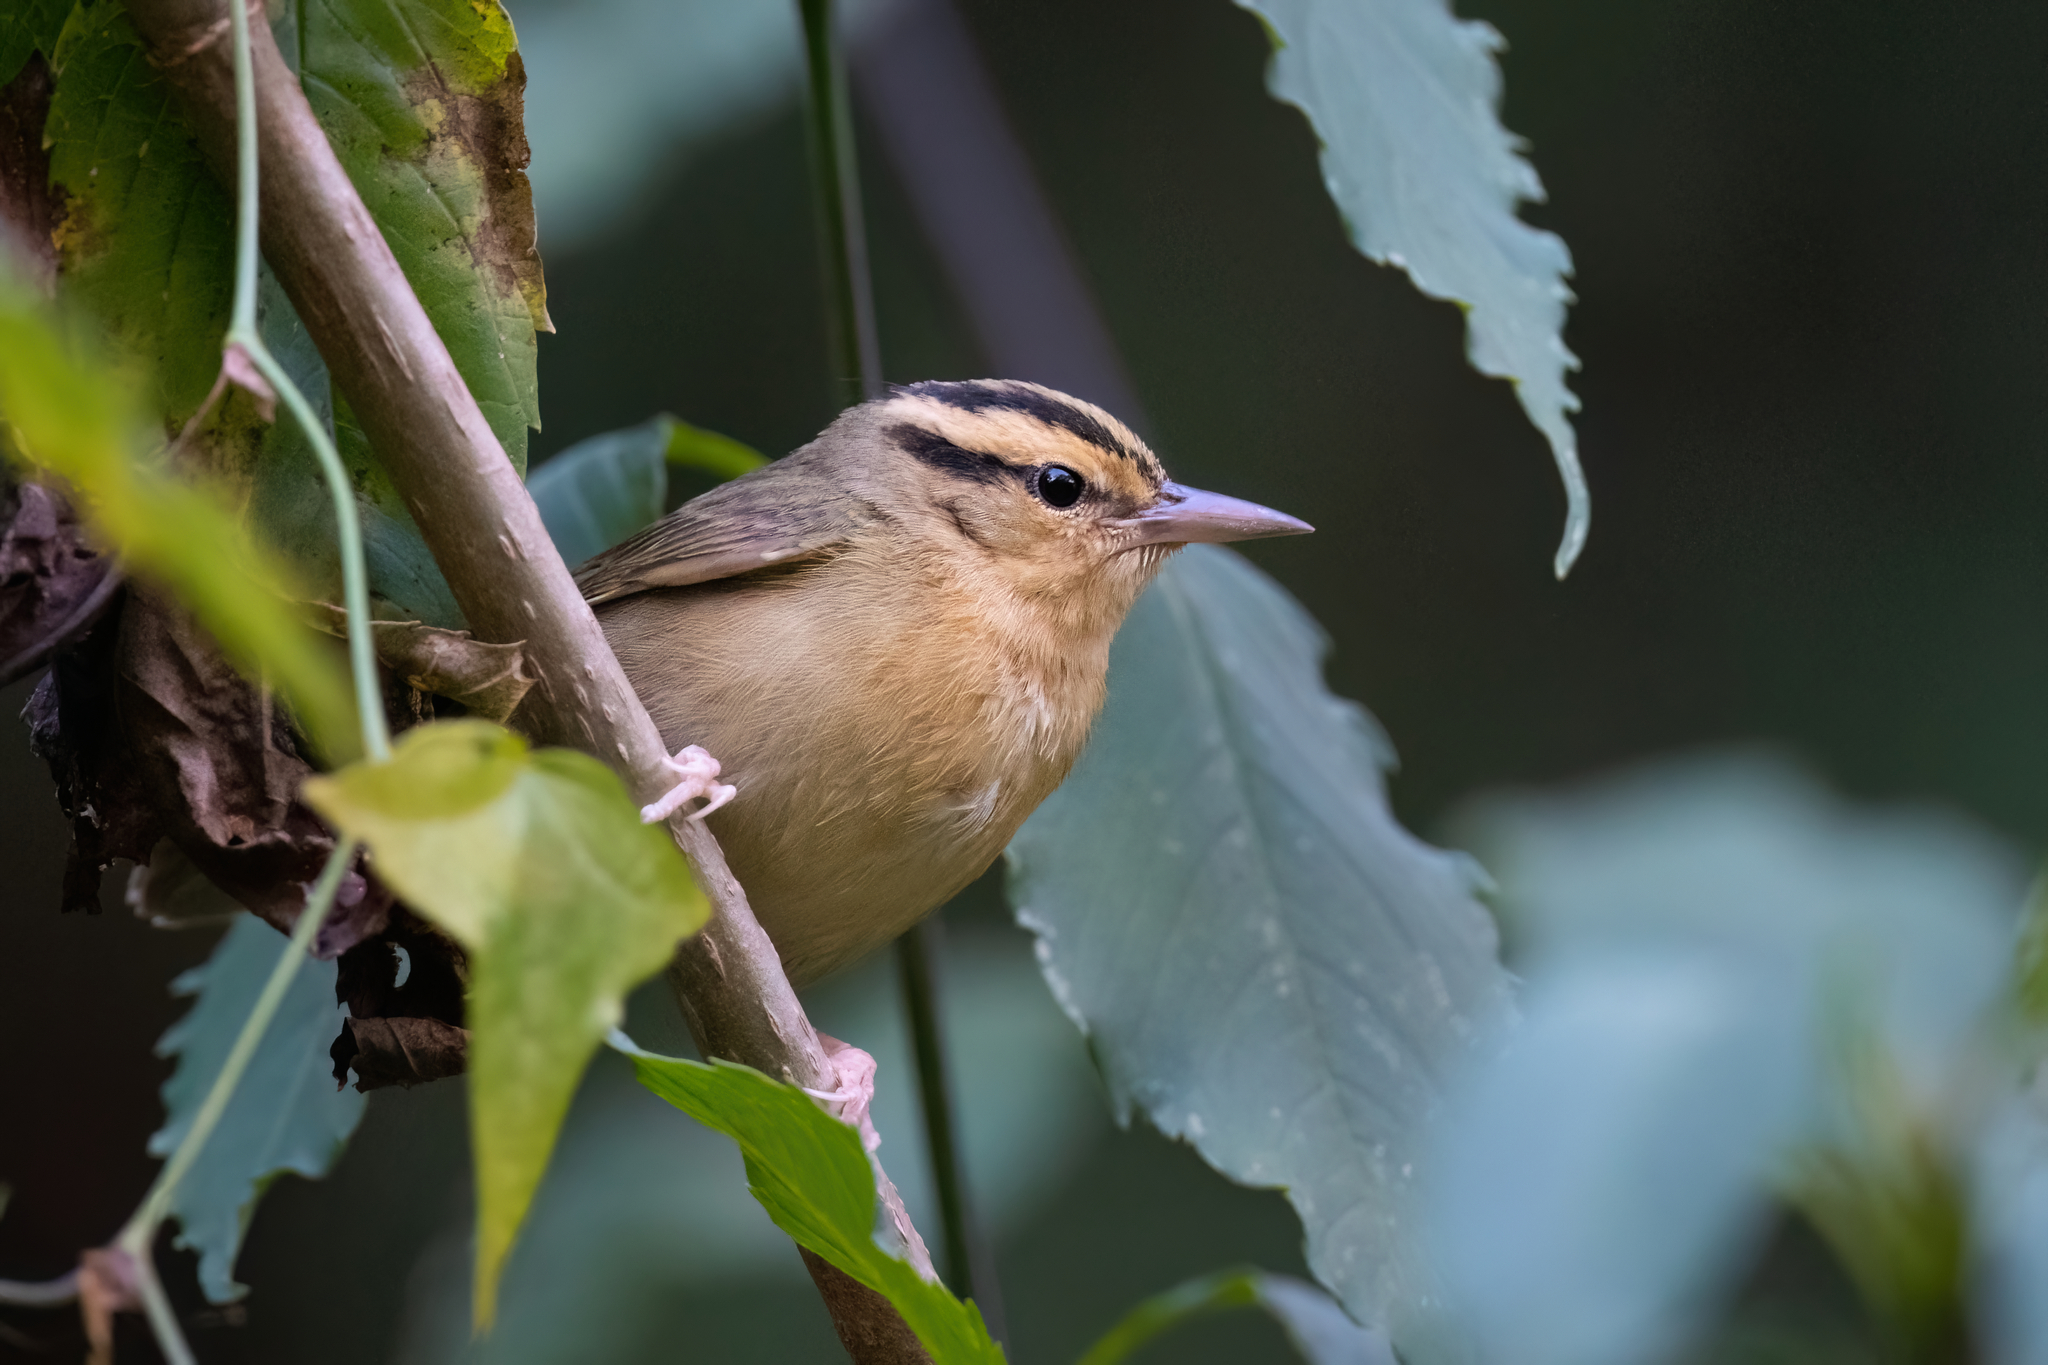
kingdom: Animalia
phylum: Chordata
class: Aves
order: Passeriformes
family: Parulidae
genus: Helmitheros
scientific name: Helmitheros vermivorum
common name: Worm-eating warbler
